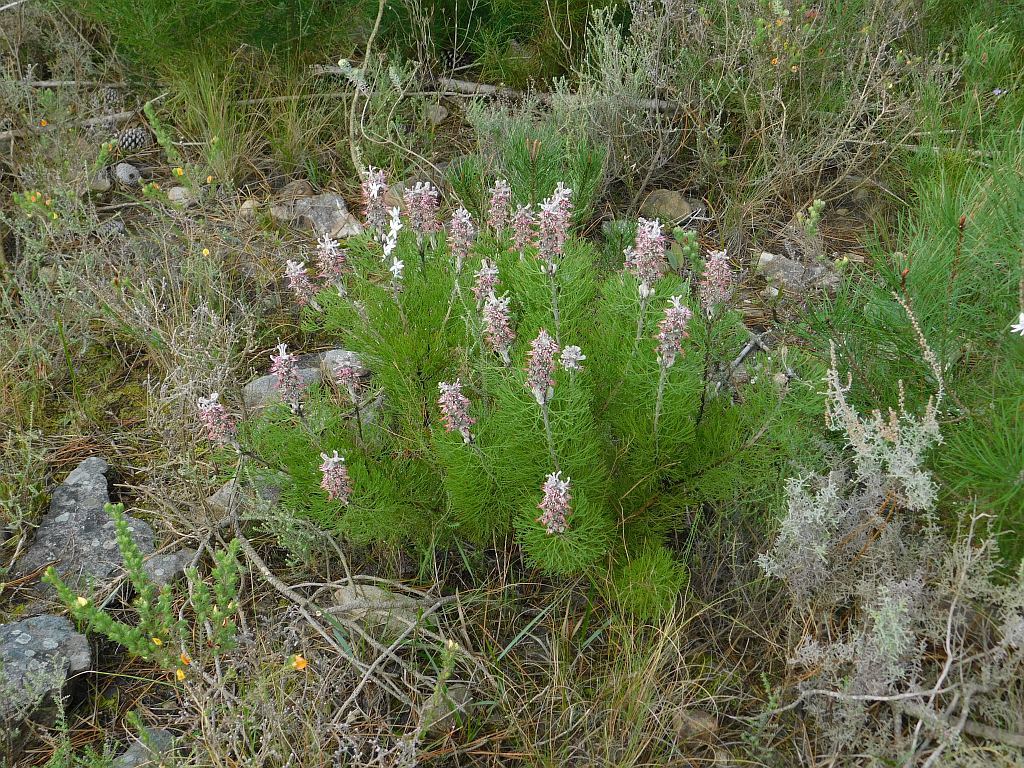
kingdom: Plantae
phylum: Tracheophyta
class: Magnoliopsida
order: Proteales
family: Proteaceae
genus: Paranomus
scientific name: Paranomus dispersus
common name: Long-head sceptre
